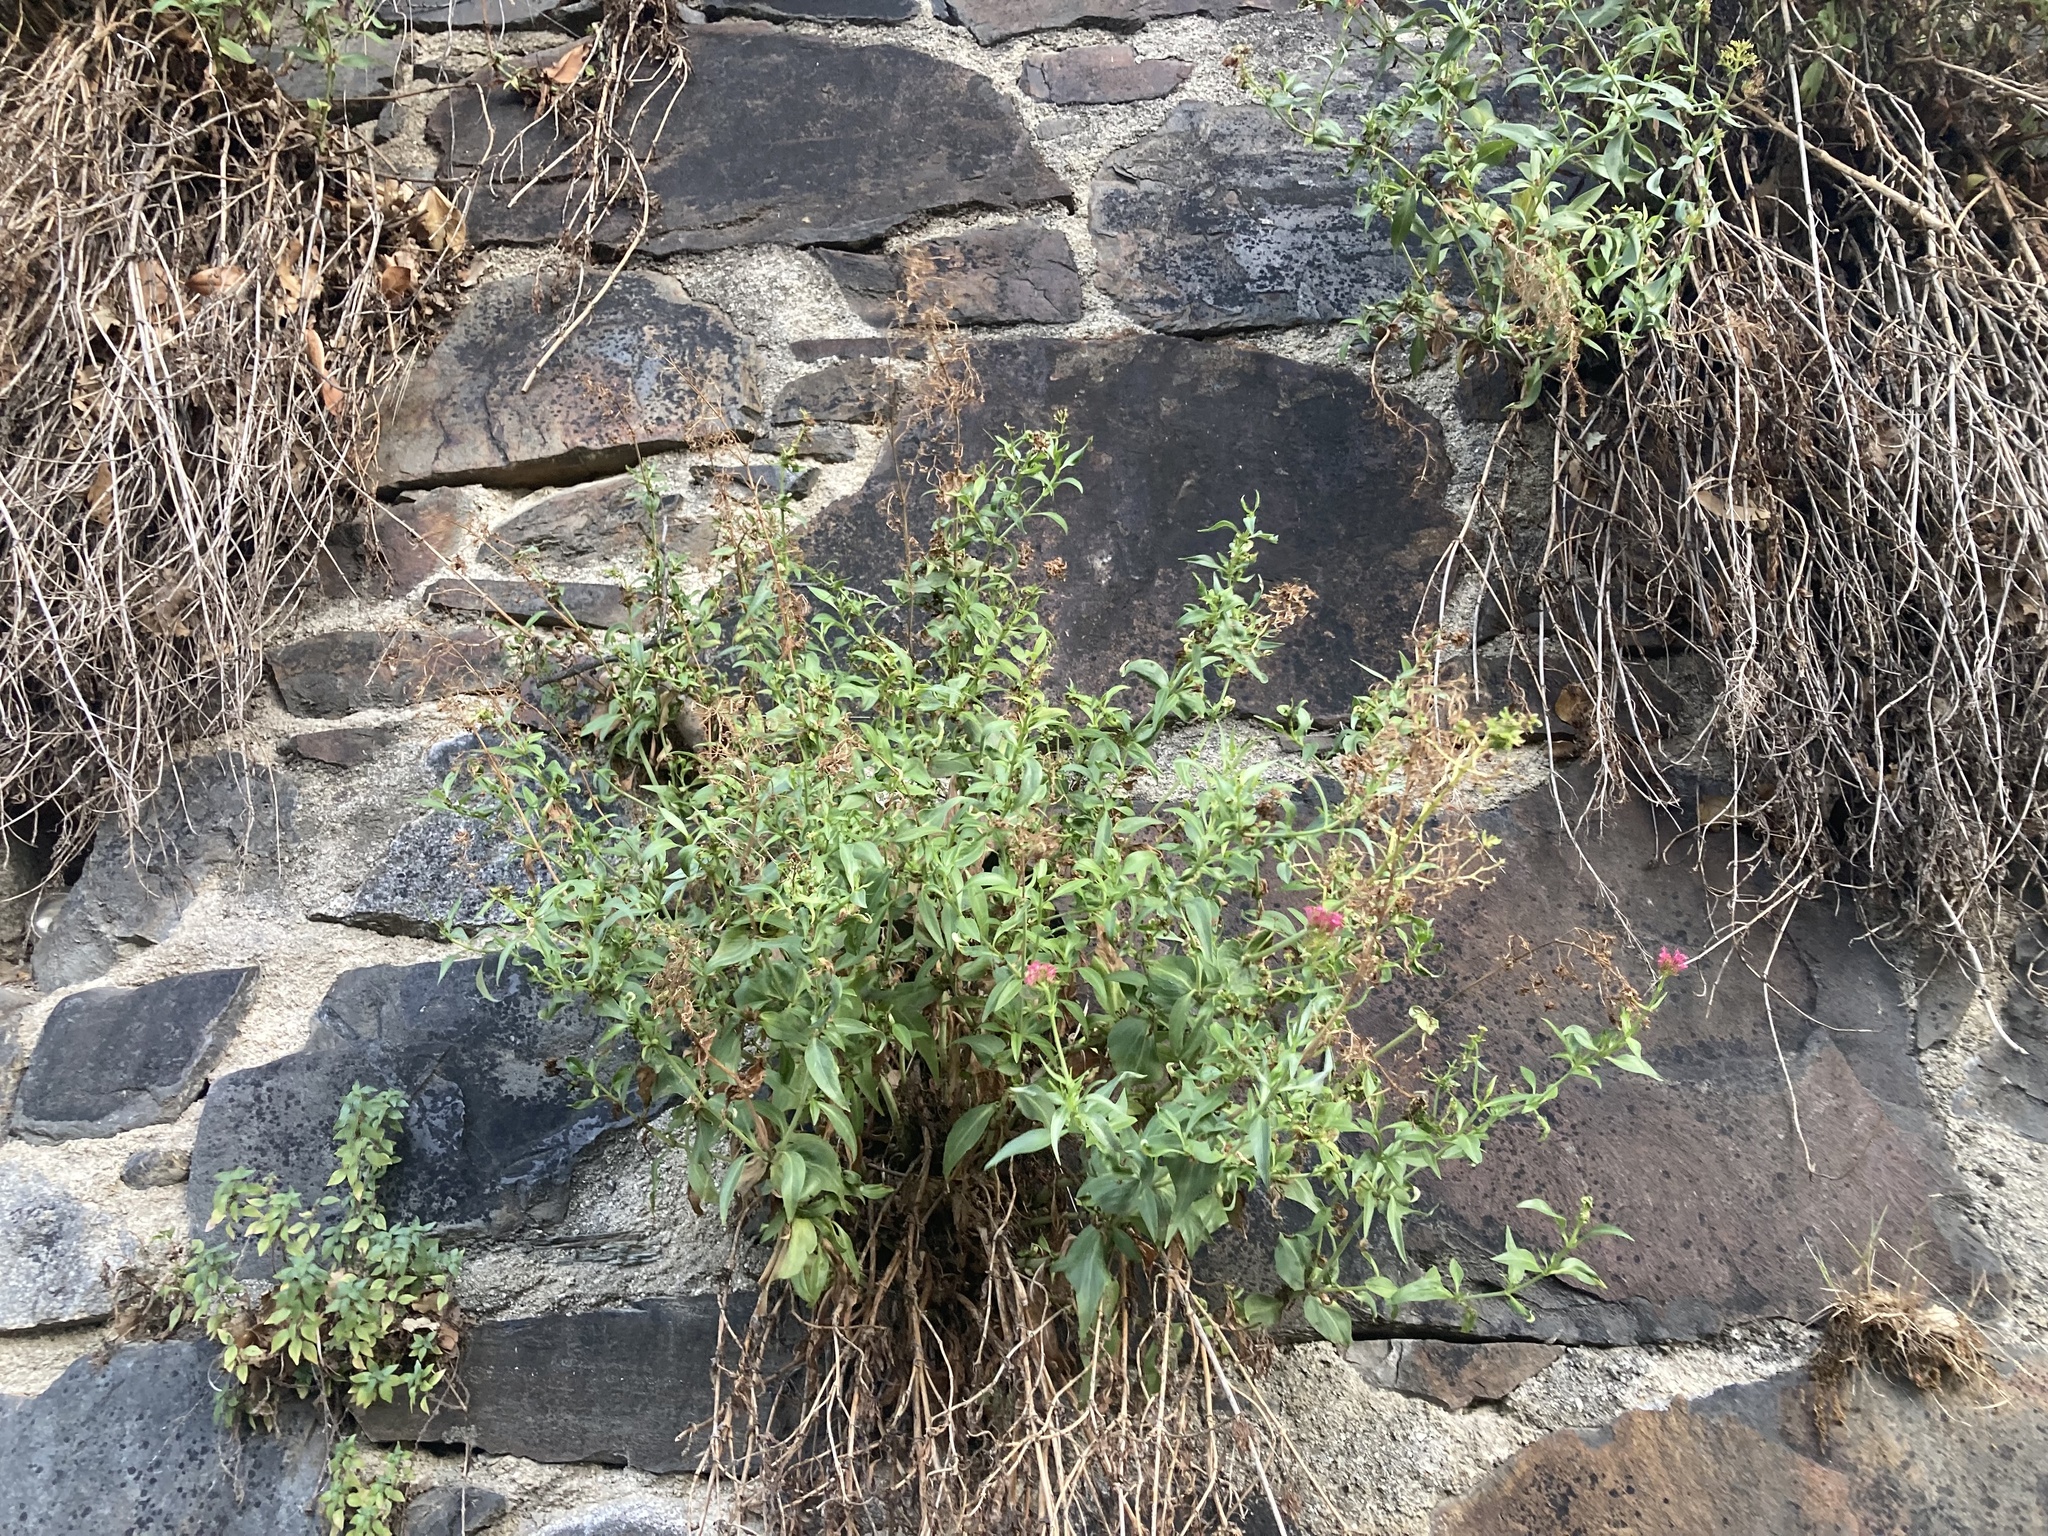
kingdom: Plantae
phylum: Tracheophyta
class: Magnoliopsida
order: Dipsacales
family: Caprifoliaceae
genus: Centranthus
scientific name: Centranthus ruber
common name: Red valerian
